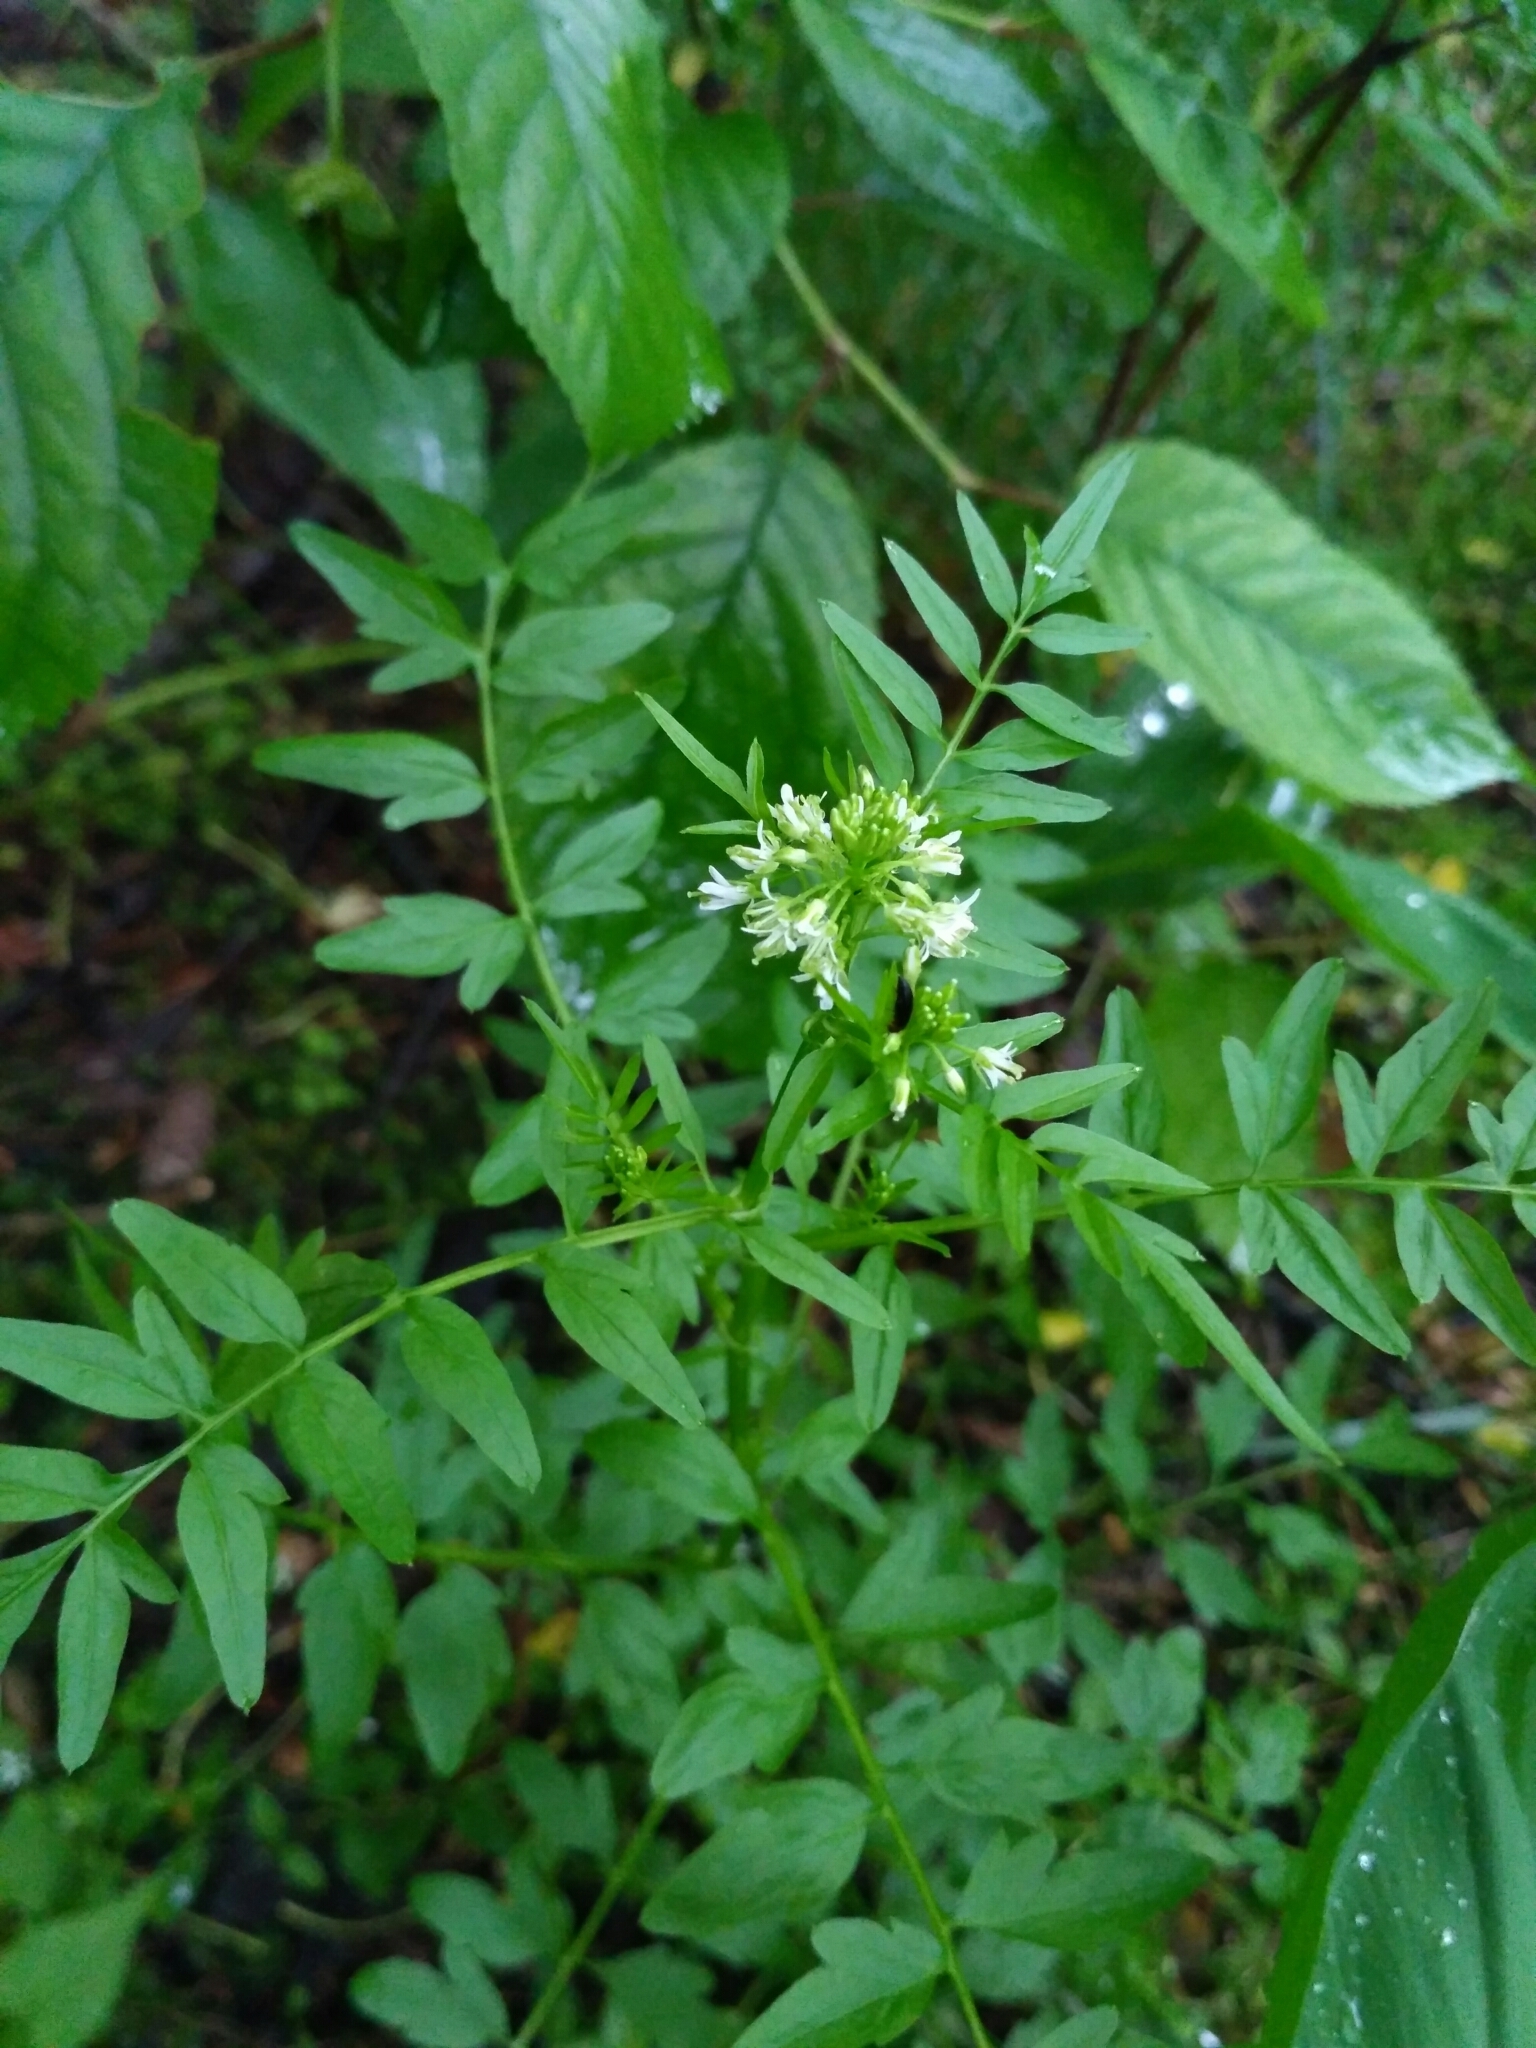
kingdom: Plantae
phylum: Tracheophyta
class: Magnoliopsida
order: Brassicales
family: Brassicaceae
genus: Cardamine
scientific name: Cardamine impatiens
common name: Narrow-leaved bitter-cress
